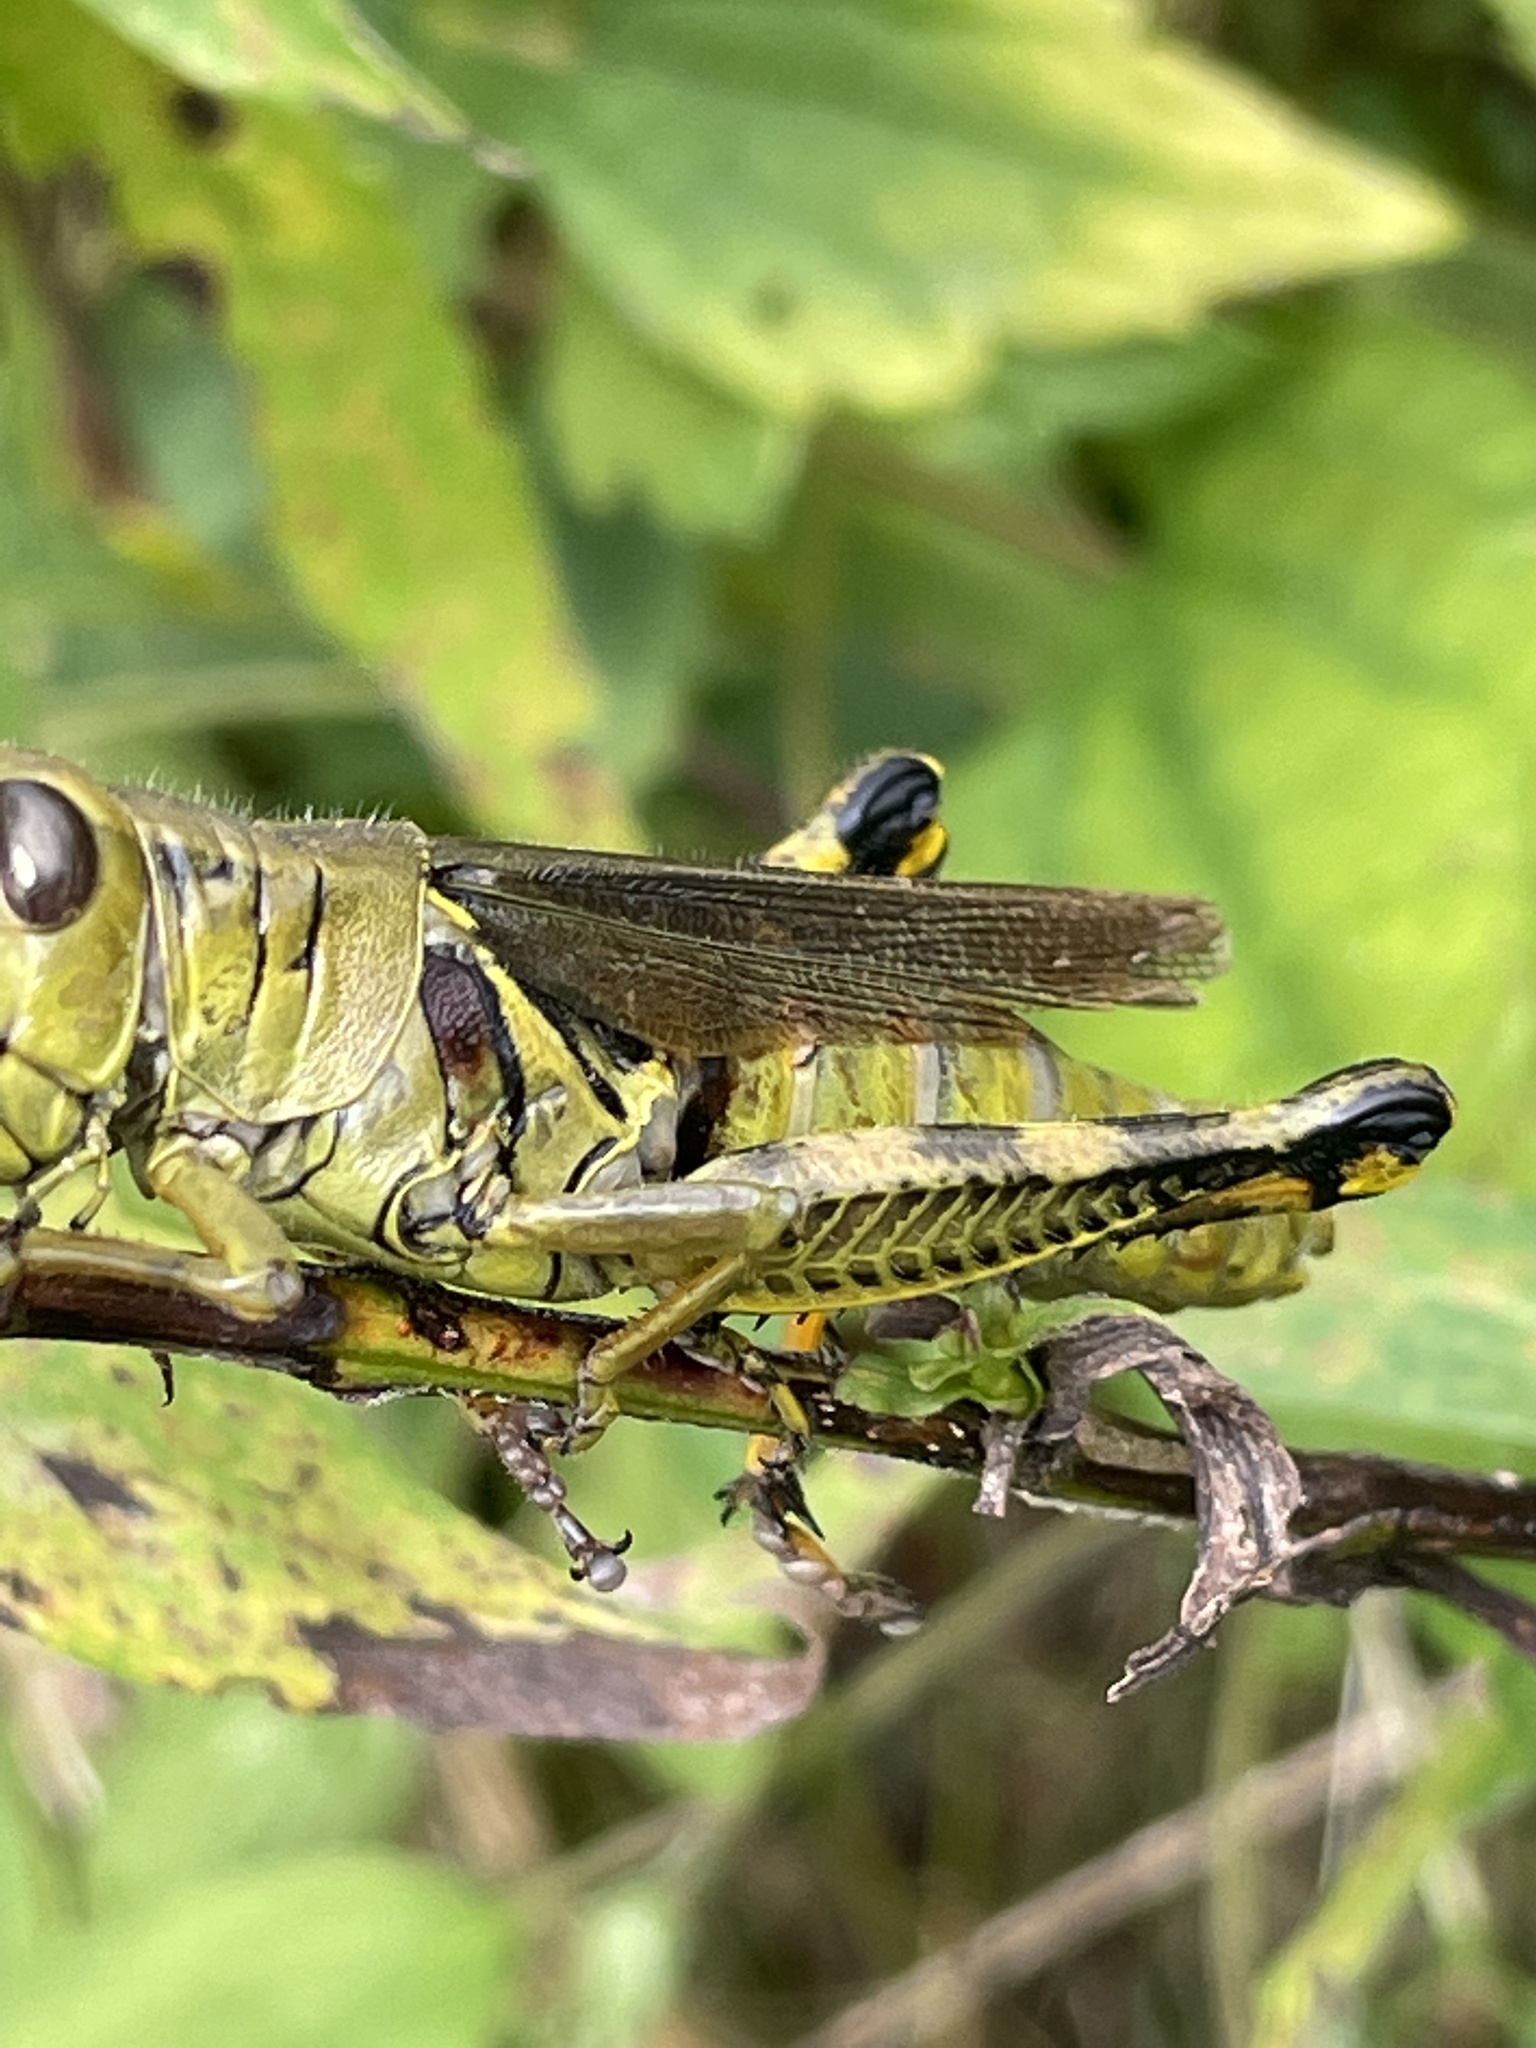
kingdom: Animalia
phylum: Arthropoda
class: Insecta
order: Orthoptera
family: Acrididae
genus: Melanoplus
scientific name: Melanoplus differentialis
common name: Differential grasshopper
